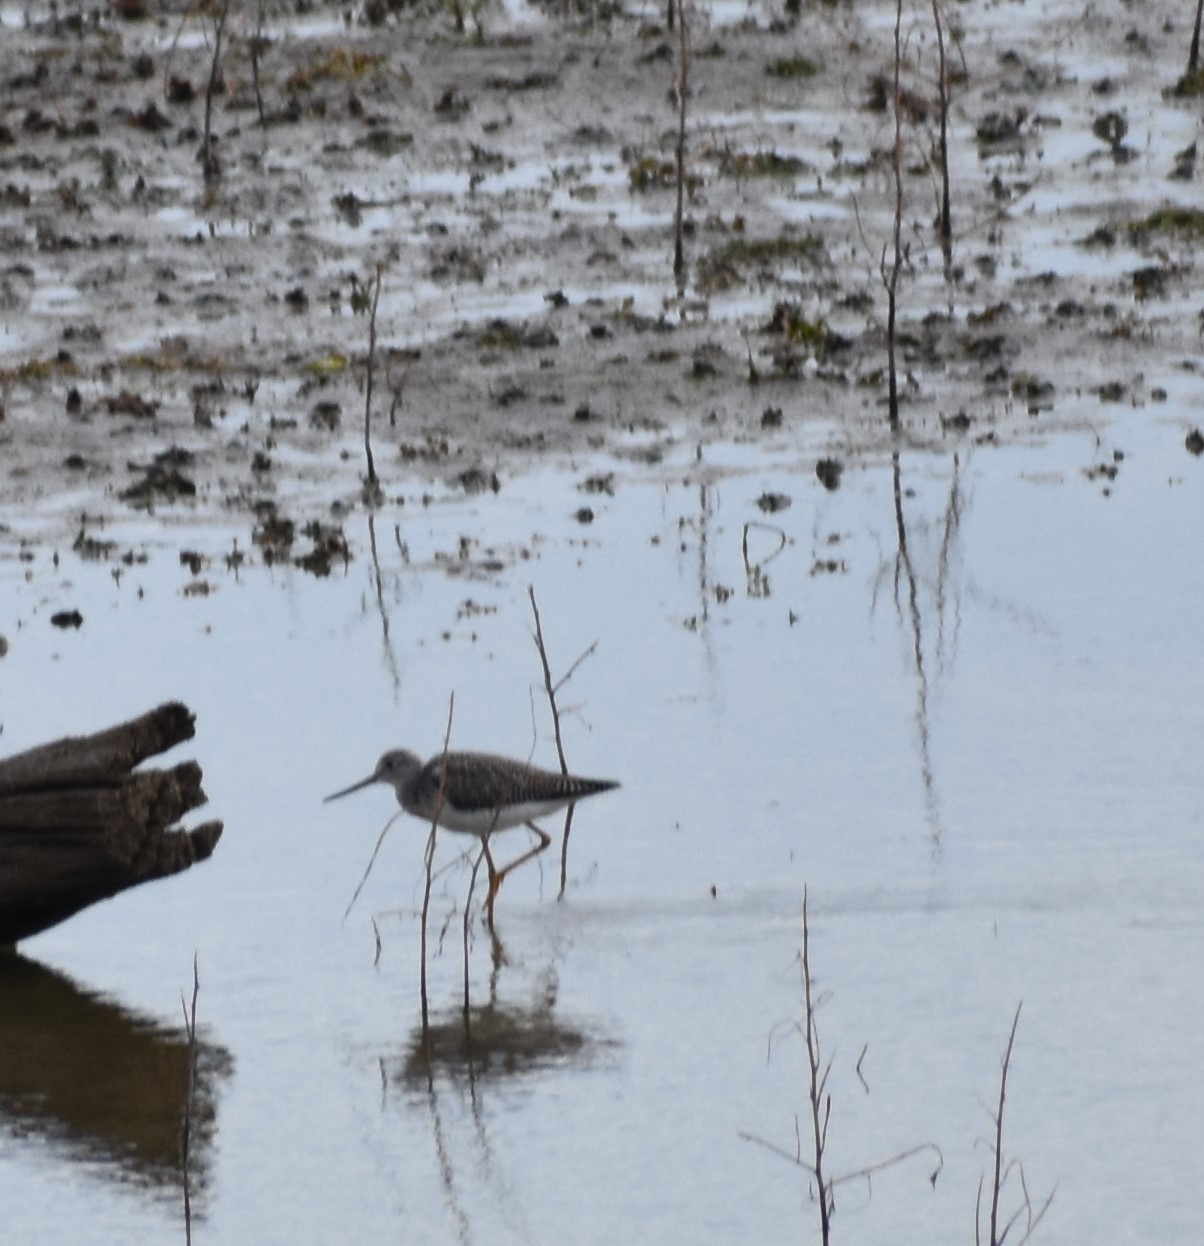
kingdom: Animalia
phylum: Chordata
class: Aves
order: Charadriiformes
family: Scolopacidae
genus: Tringa
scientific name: Tringa melanoleuca
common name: Greater yellowlegs
